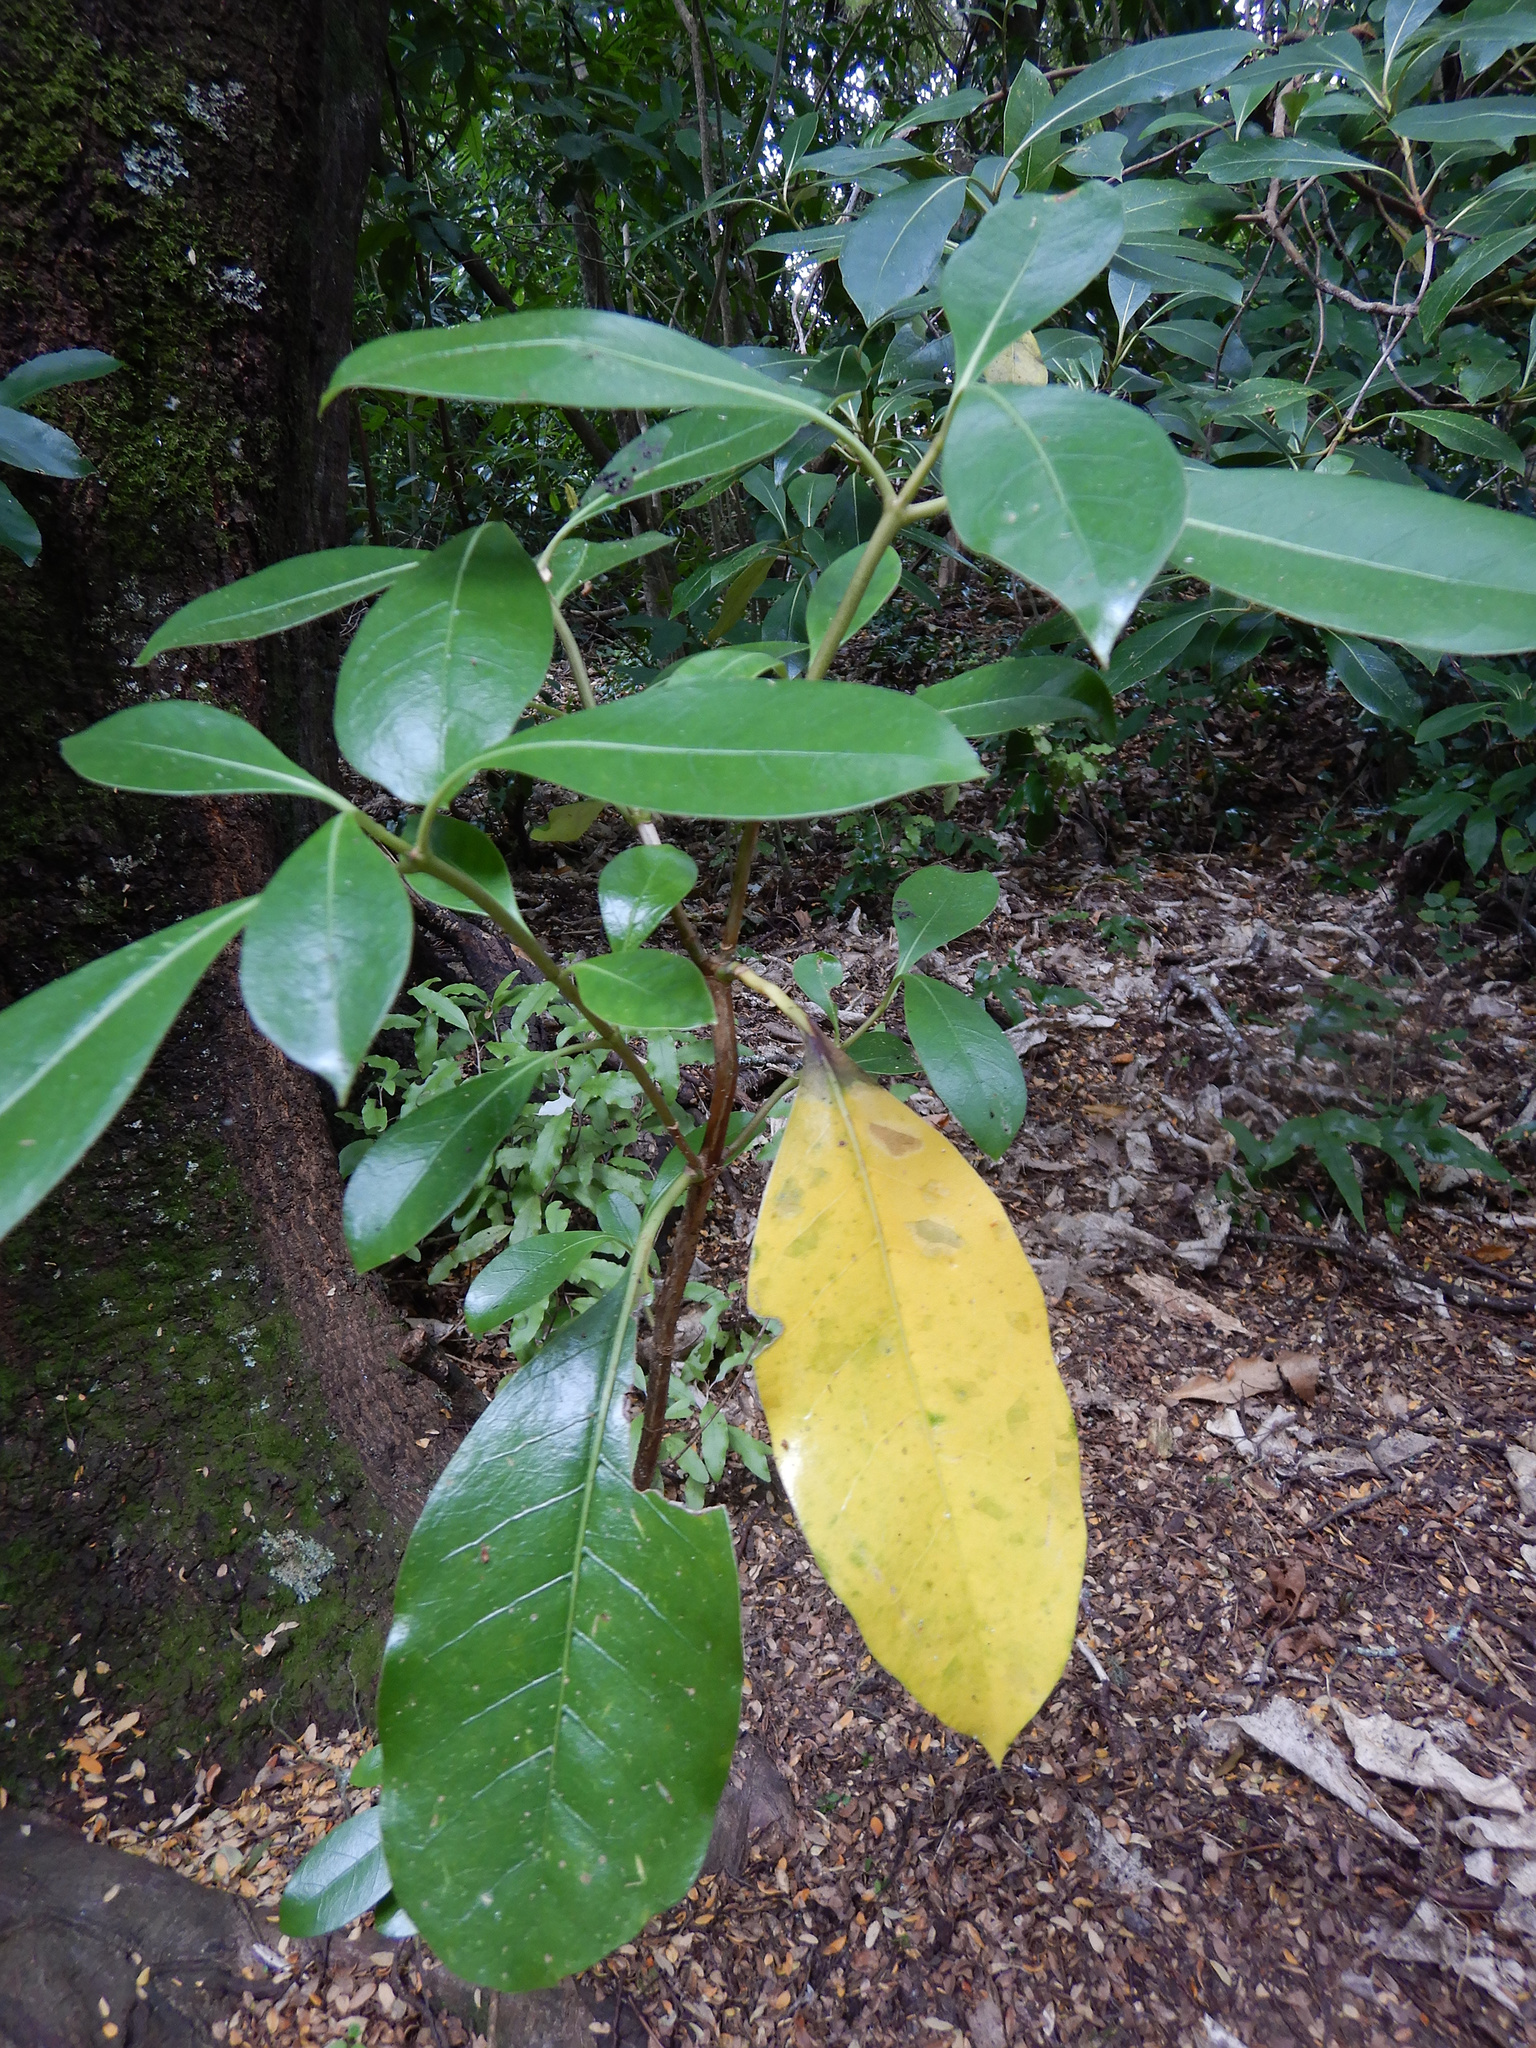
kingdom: Plantae
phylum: Tracheophyta
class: Magnoliopsida
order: Gentianales
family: Rubiaceae
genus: Coprosma
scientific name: Coprosma lucida
